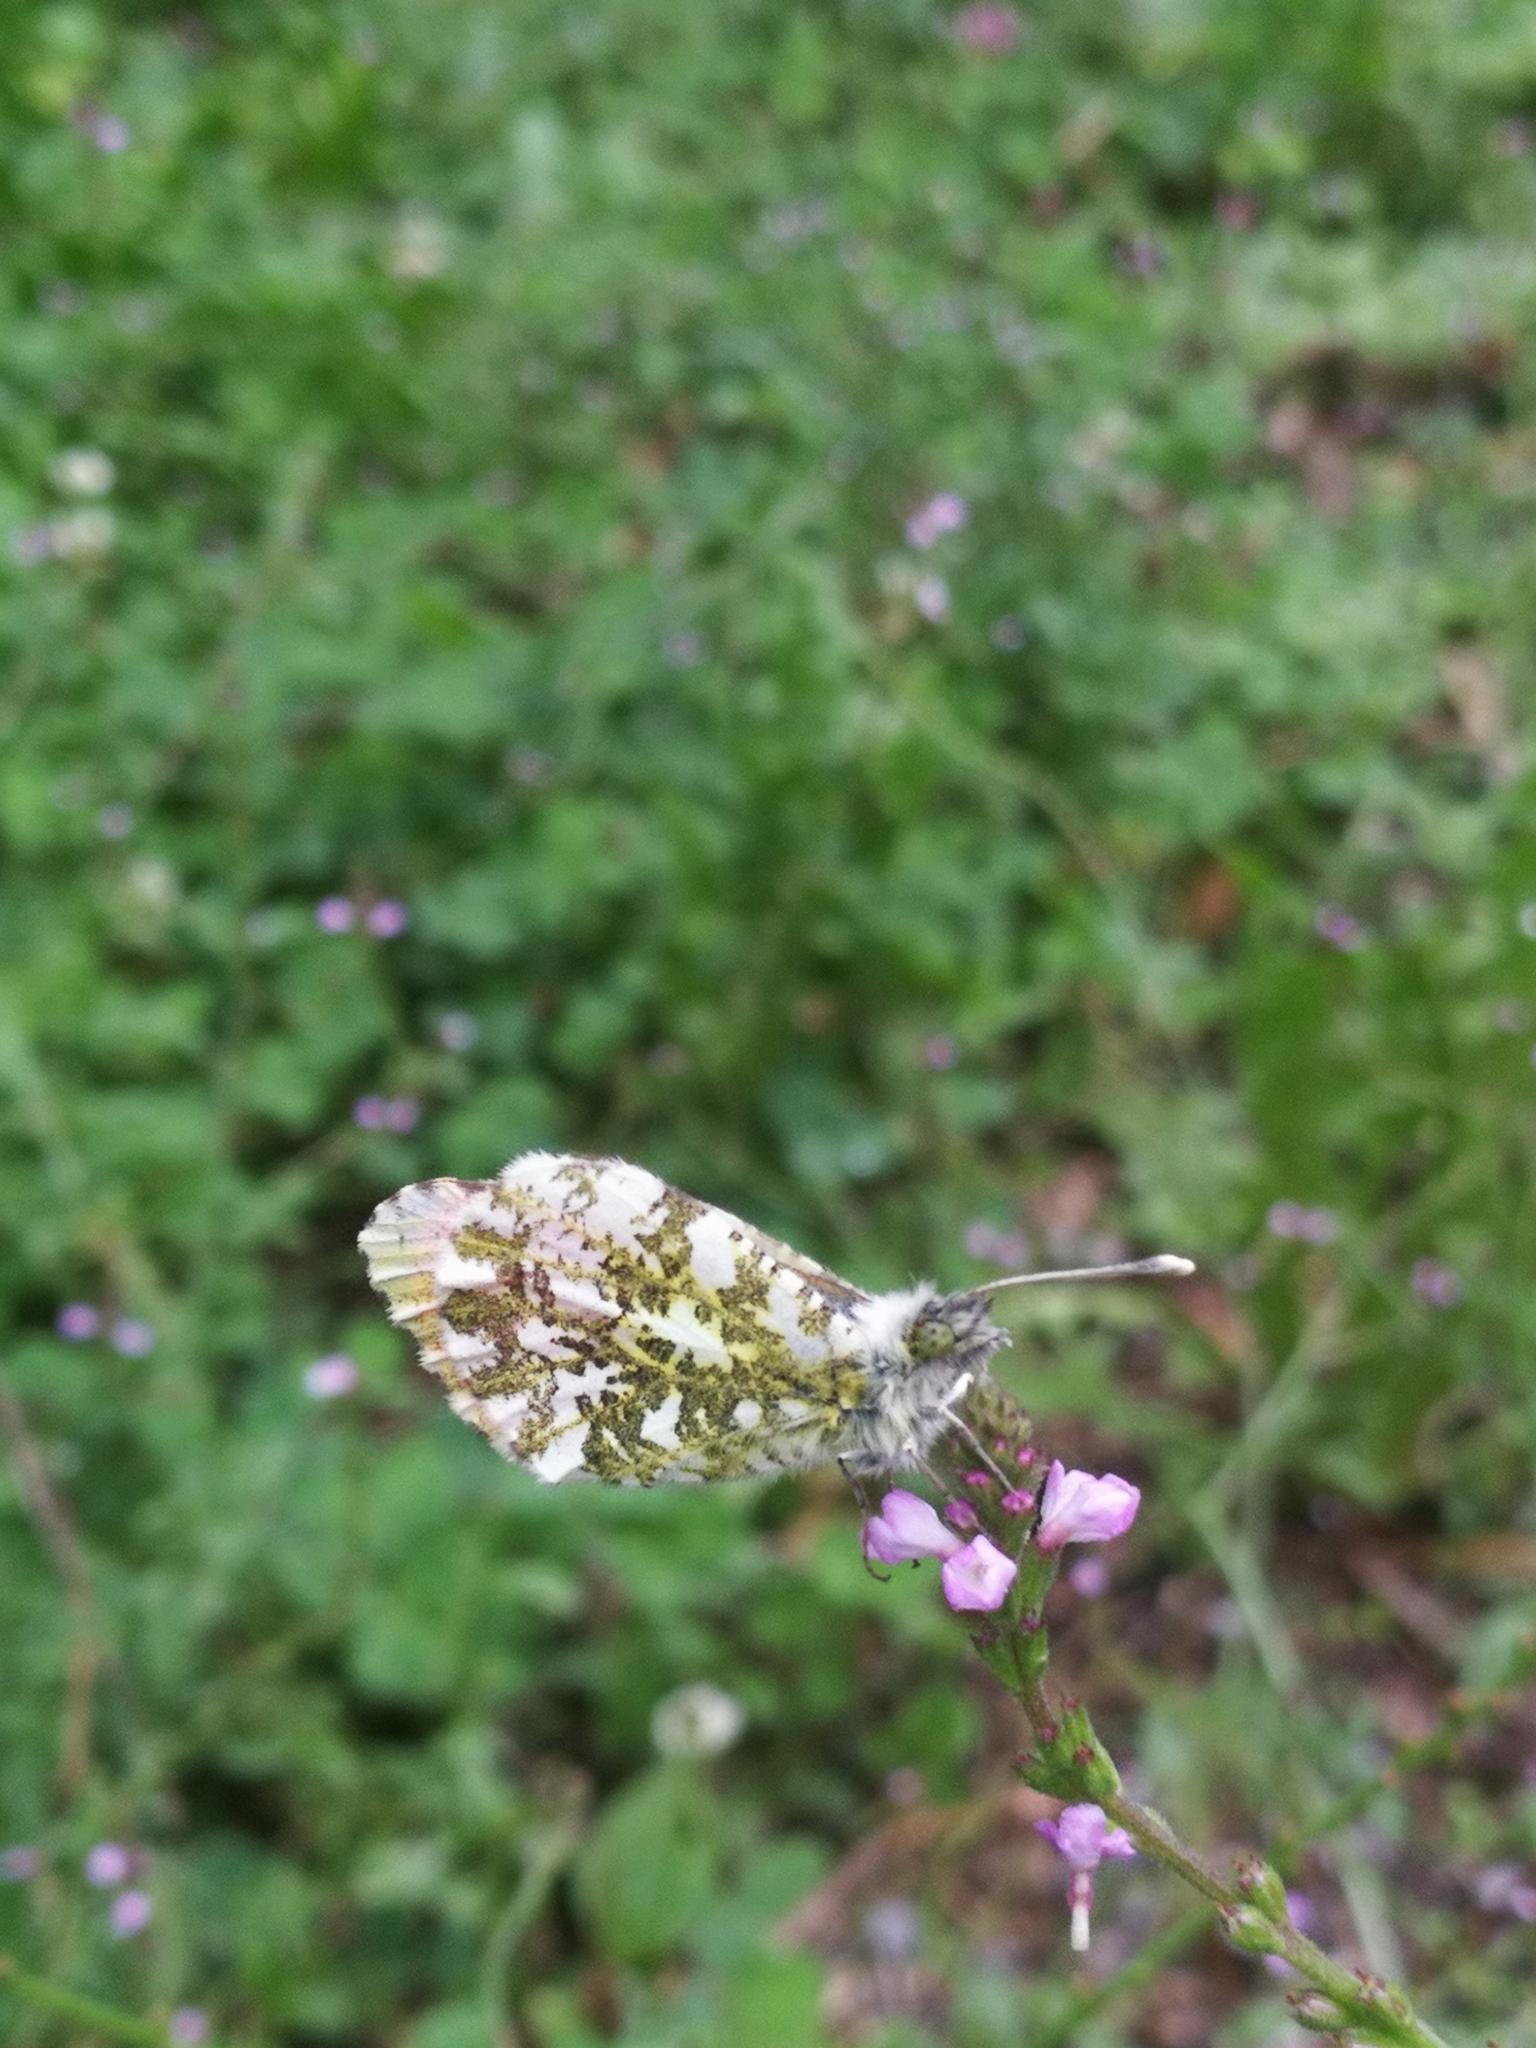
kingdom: Animalia
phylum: Arthropoda
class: Insecta
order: Lepidoptera
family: Pieridae
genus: Anthocharis
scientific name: Anthocharis cardamines
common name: Orange-tip
